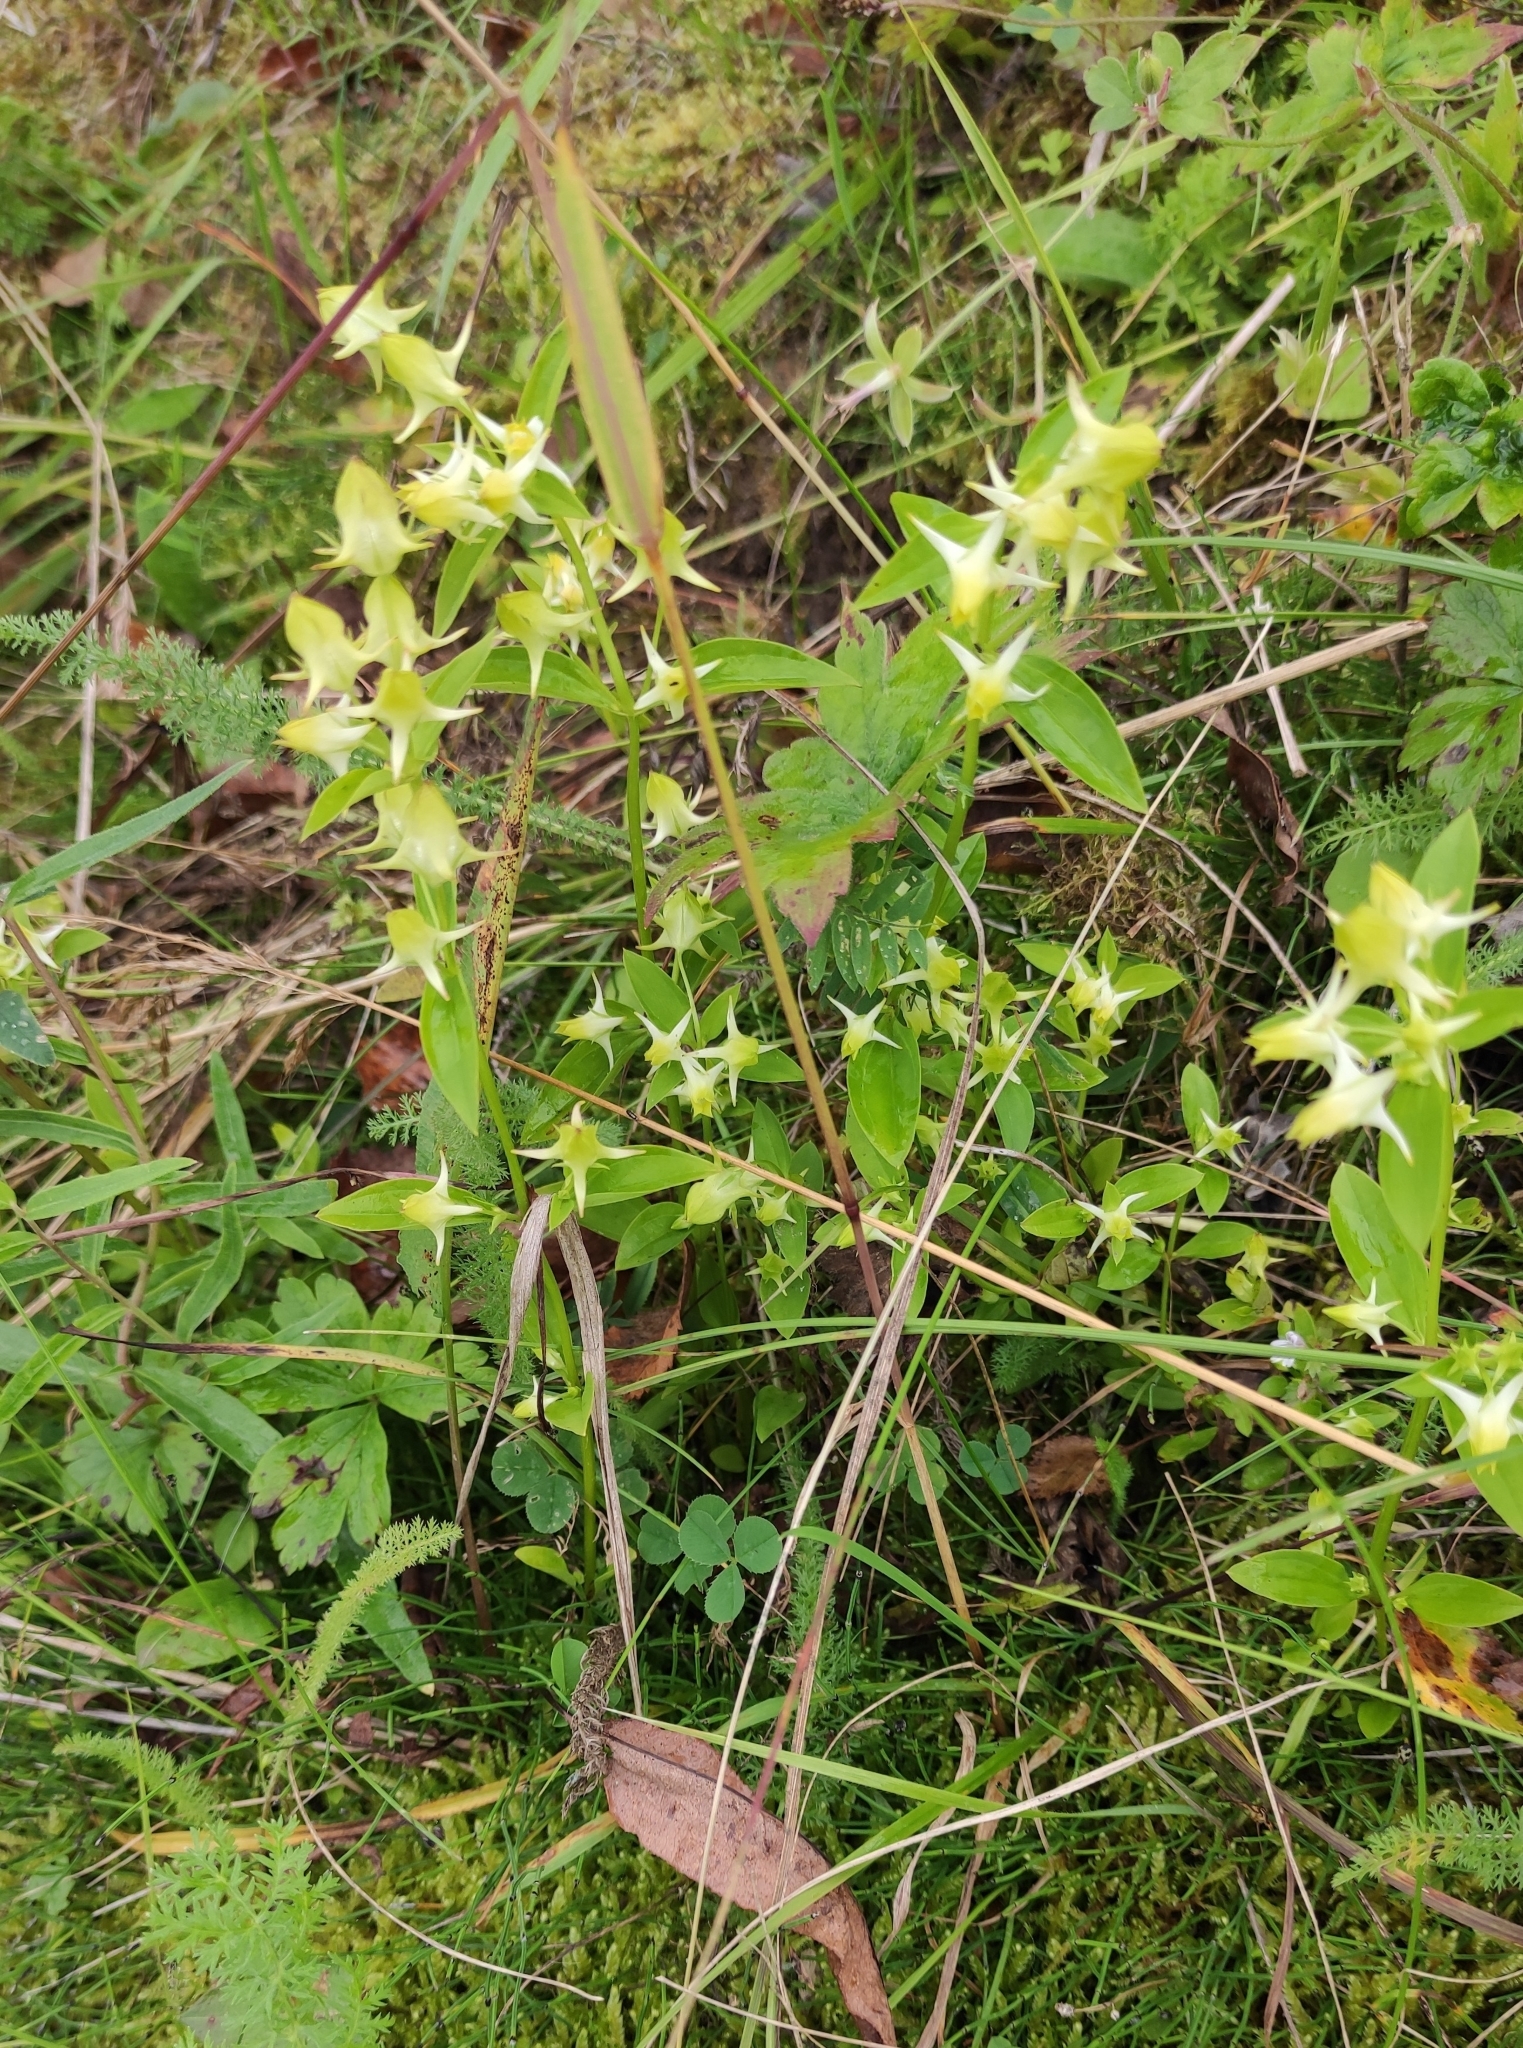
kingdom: Plantae
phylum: Tracheophyta
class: Magnoliopsida
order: Gentianales
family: Gentianaceae
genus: Halenia
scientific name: Halenia corniculata
